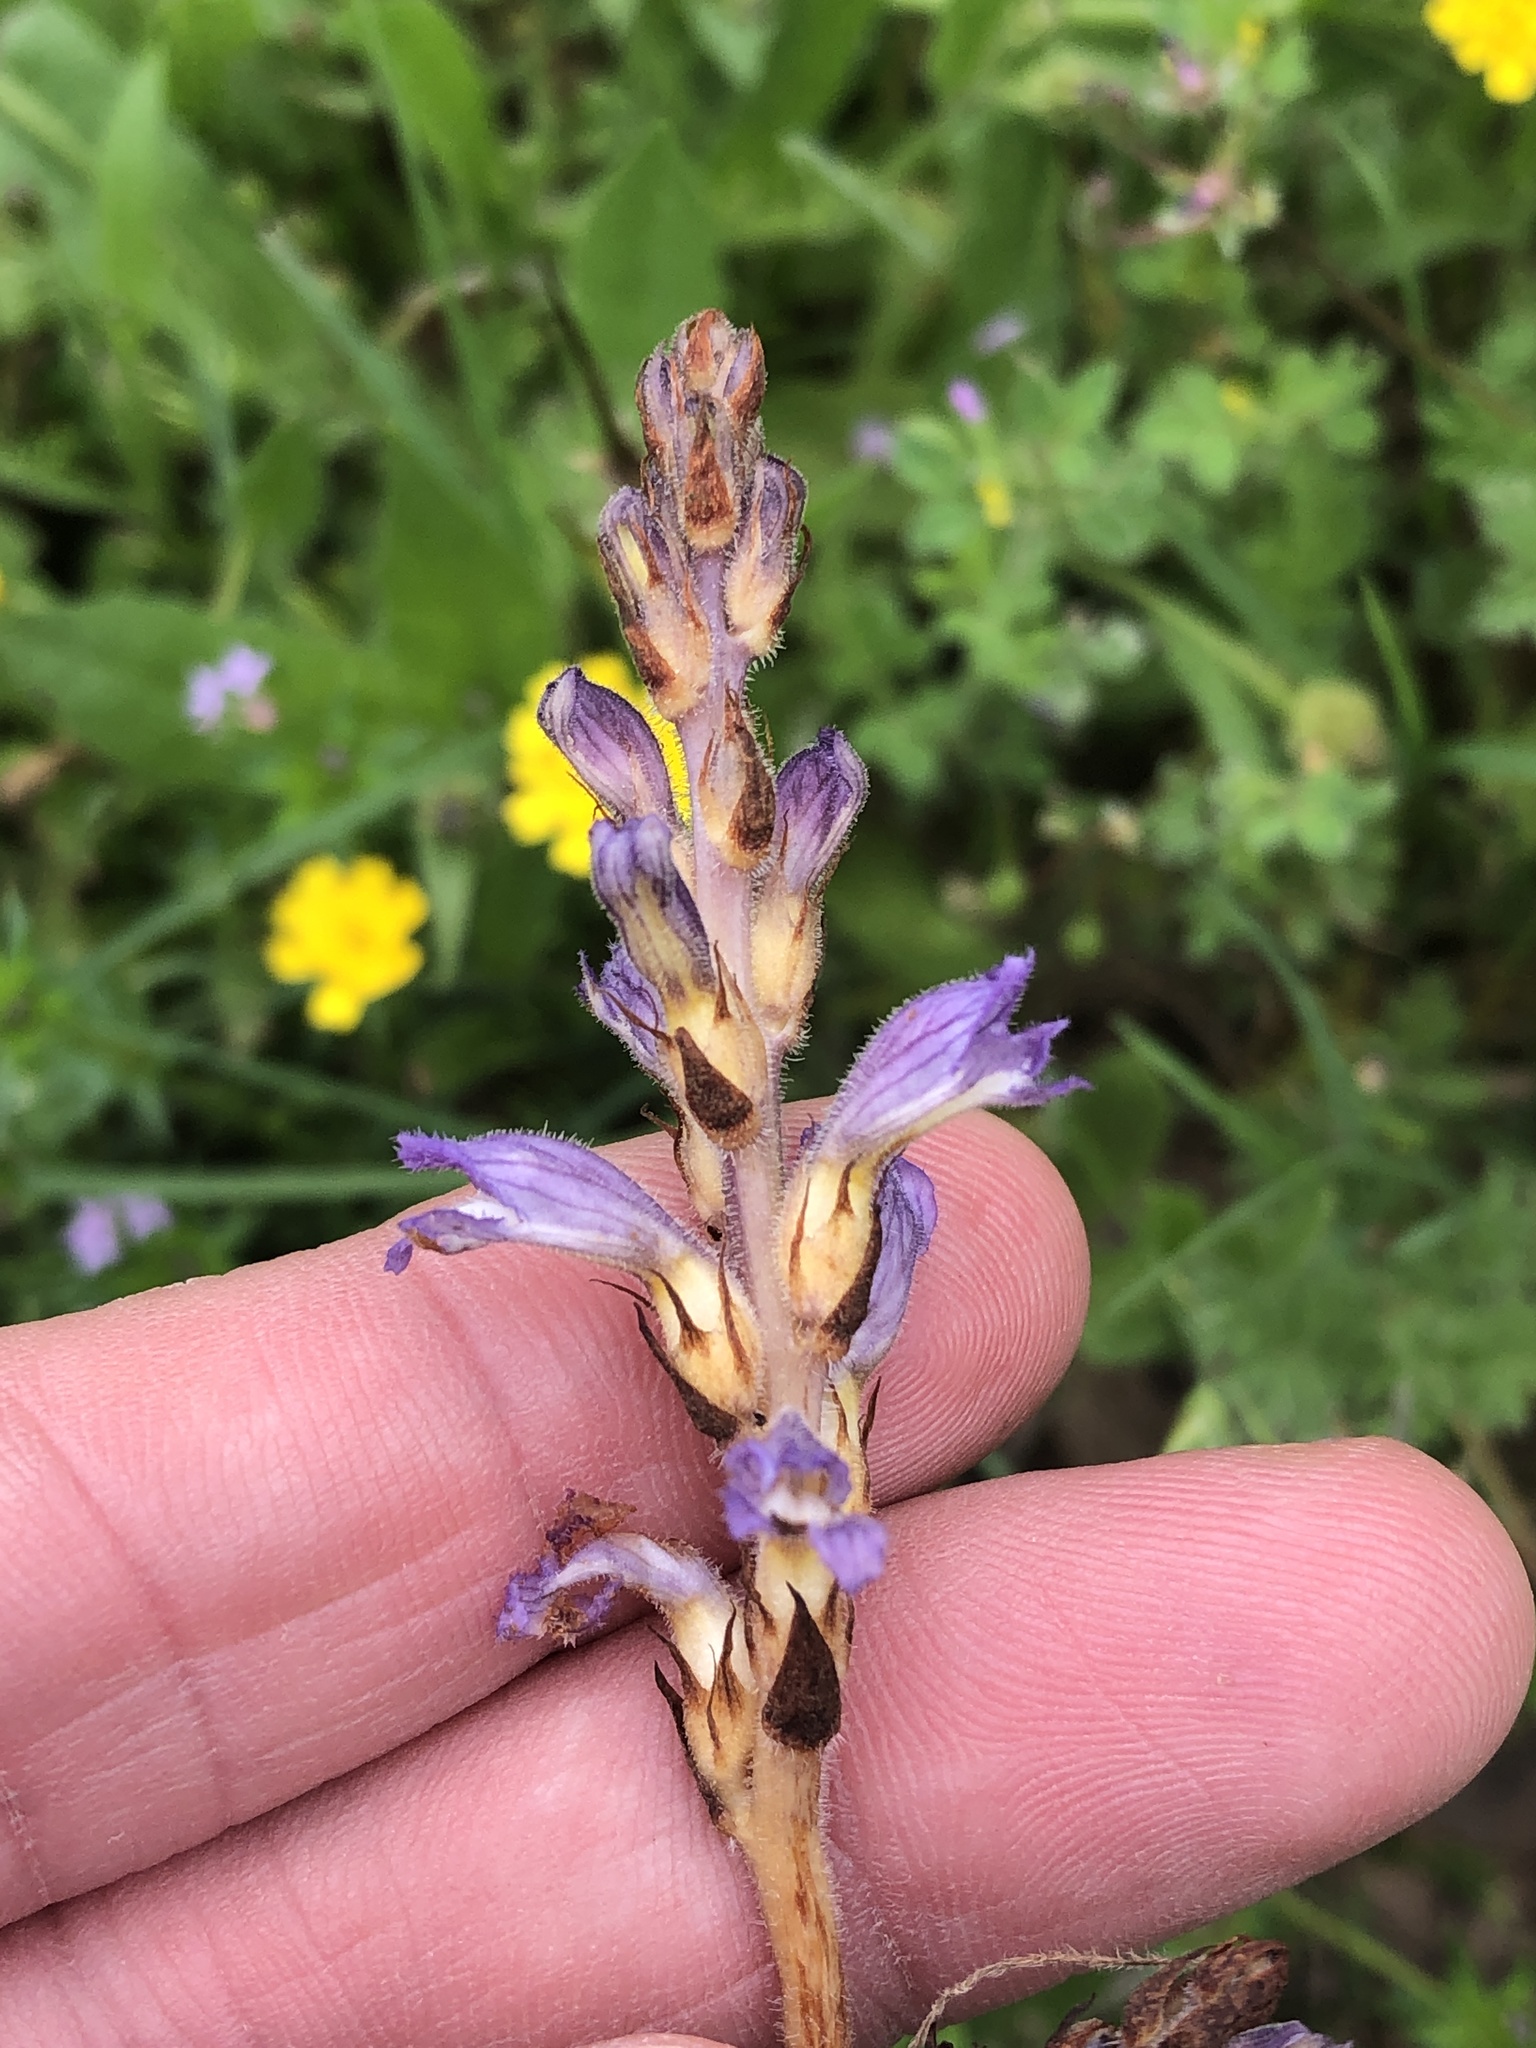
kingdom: Plantae
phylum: Tracheophyta
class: Magnoliopsida
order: Lamiales
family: Orobanchaceae
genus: Phelipanche
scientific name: Phelipanche mutelii
